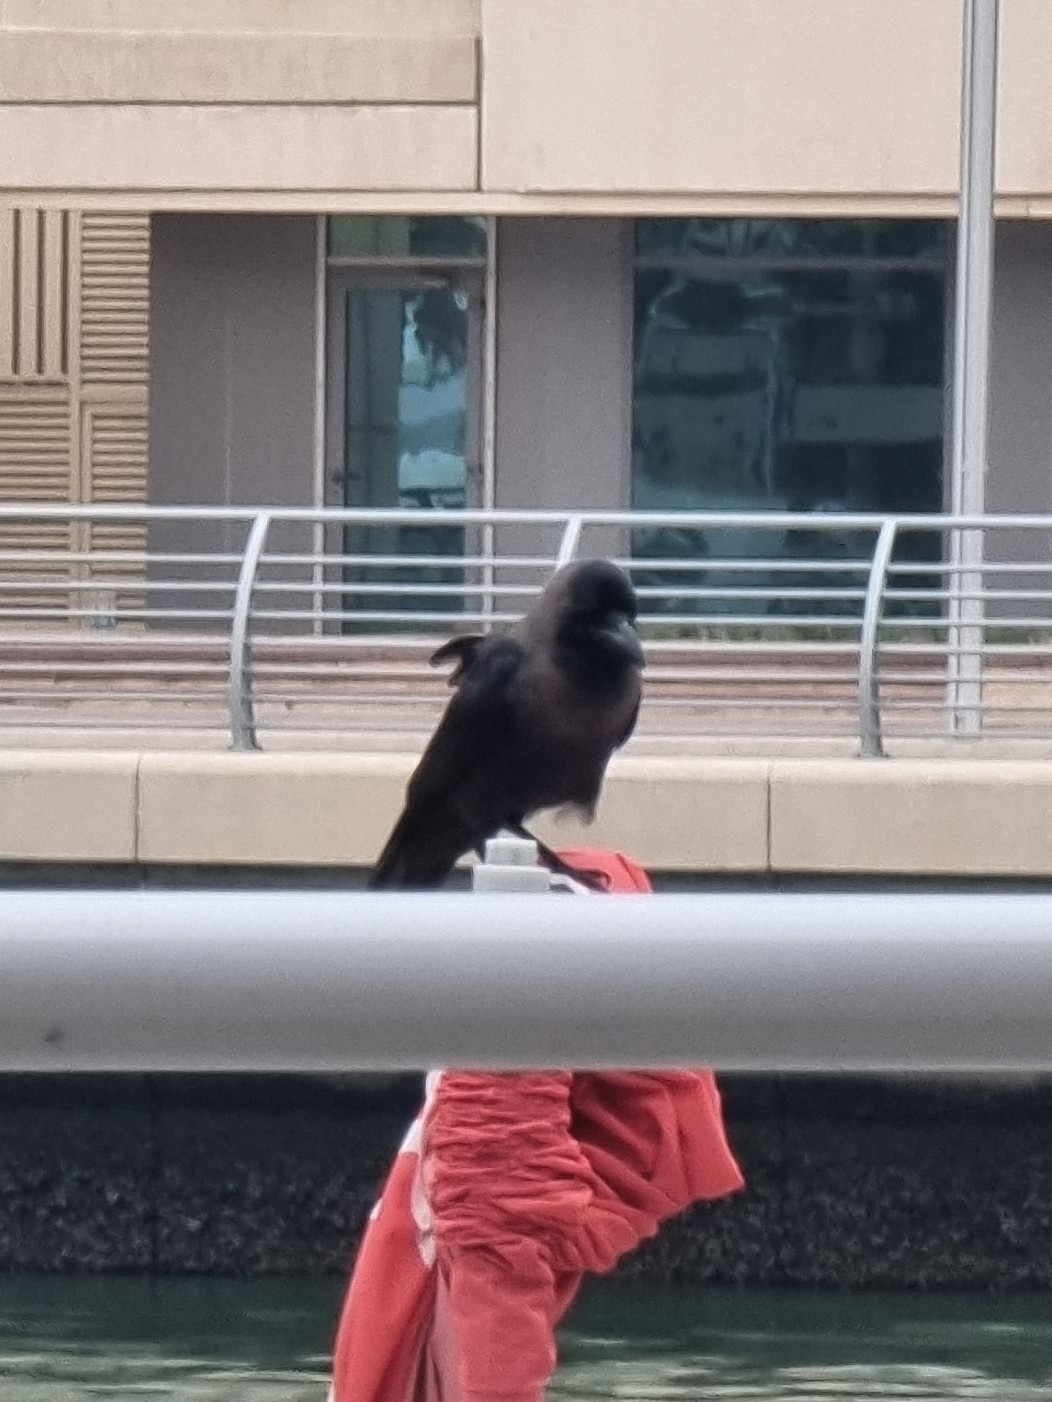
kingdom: Animalia
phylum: Chordata
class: Aves
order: Passeriformes
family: Corvidae
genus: Corvus
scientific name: Corvus splendens
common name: House crow
